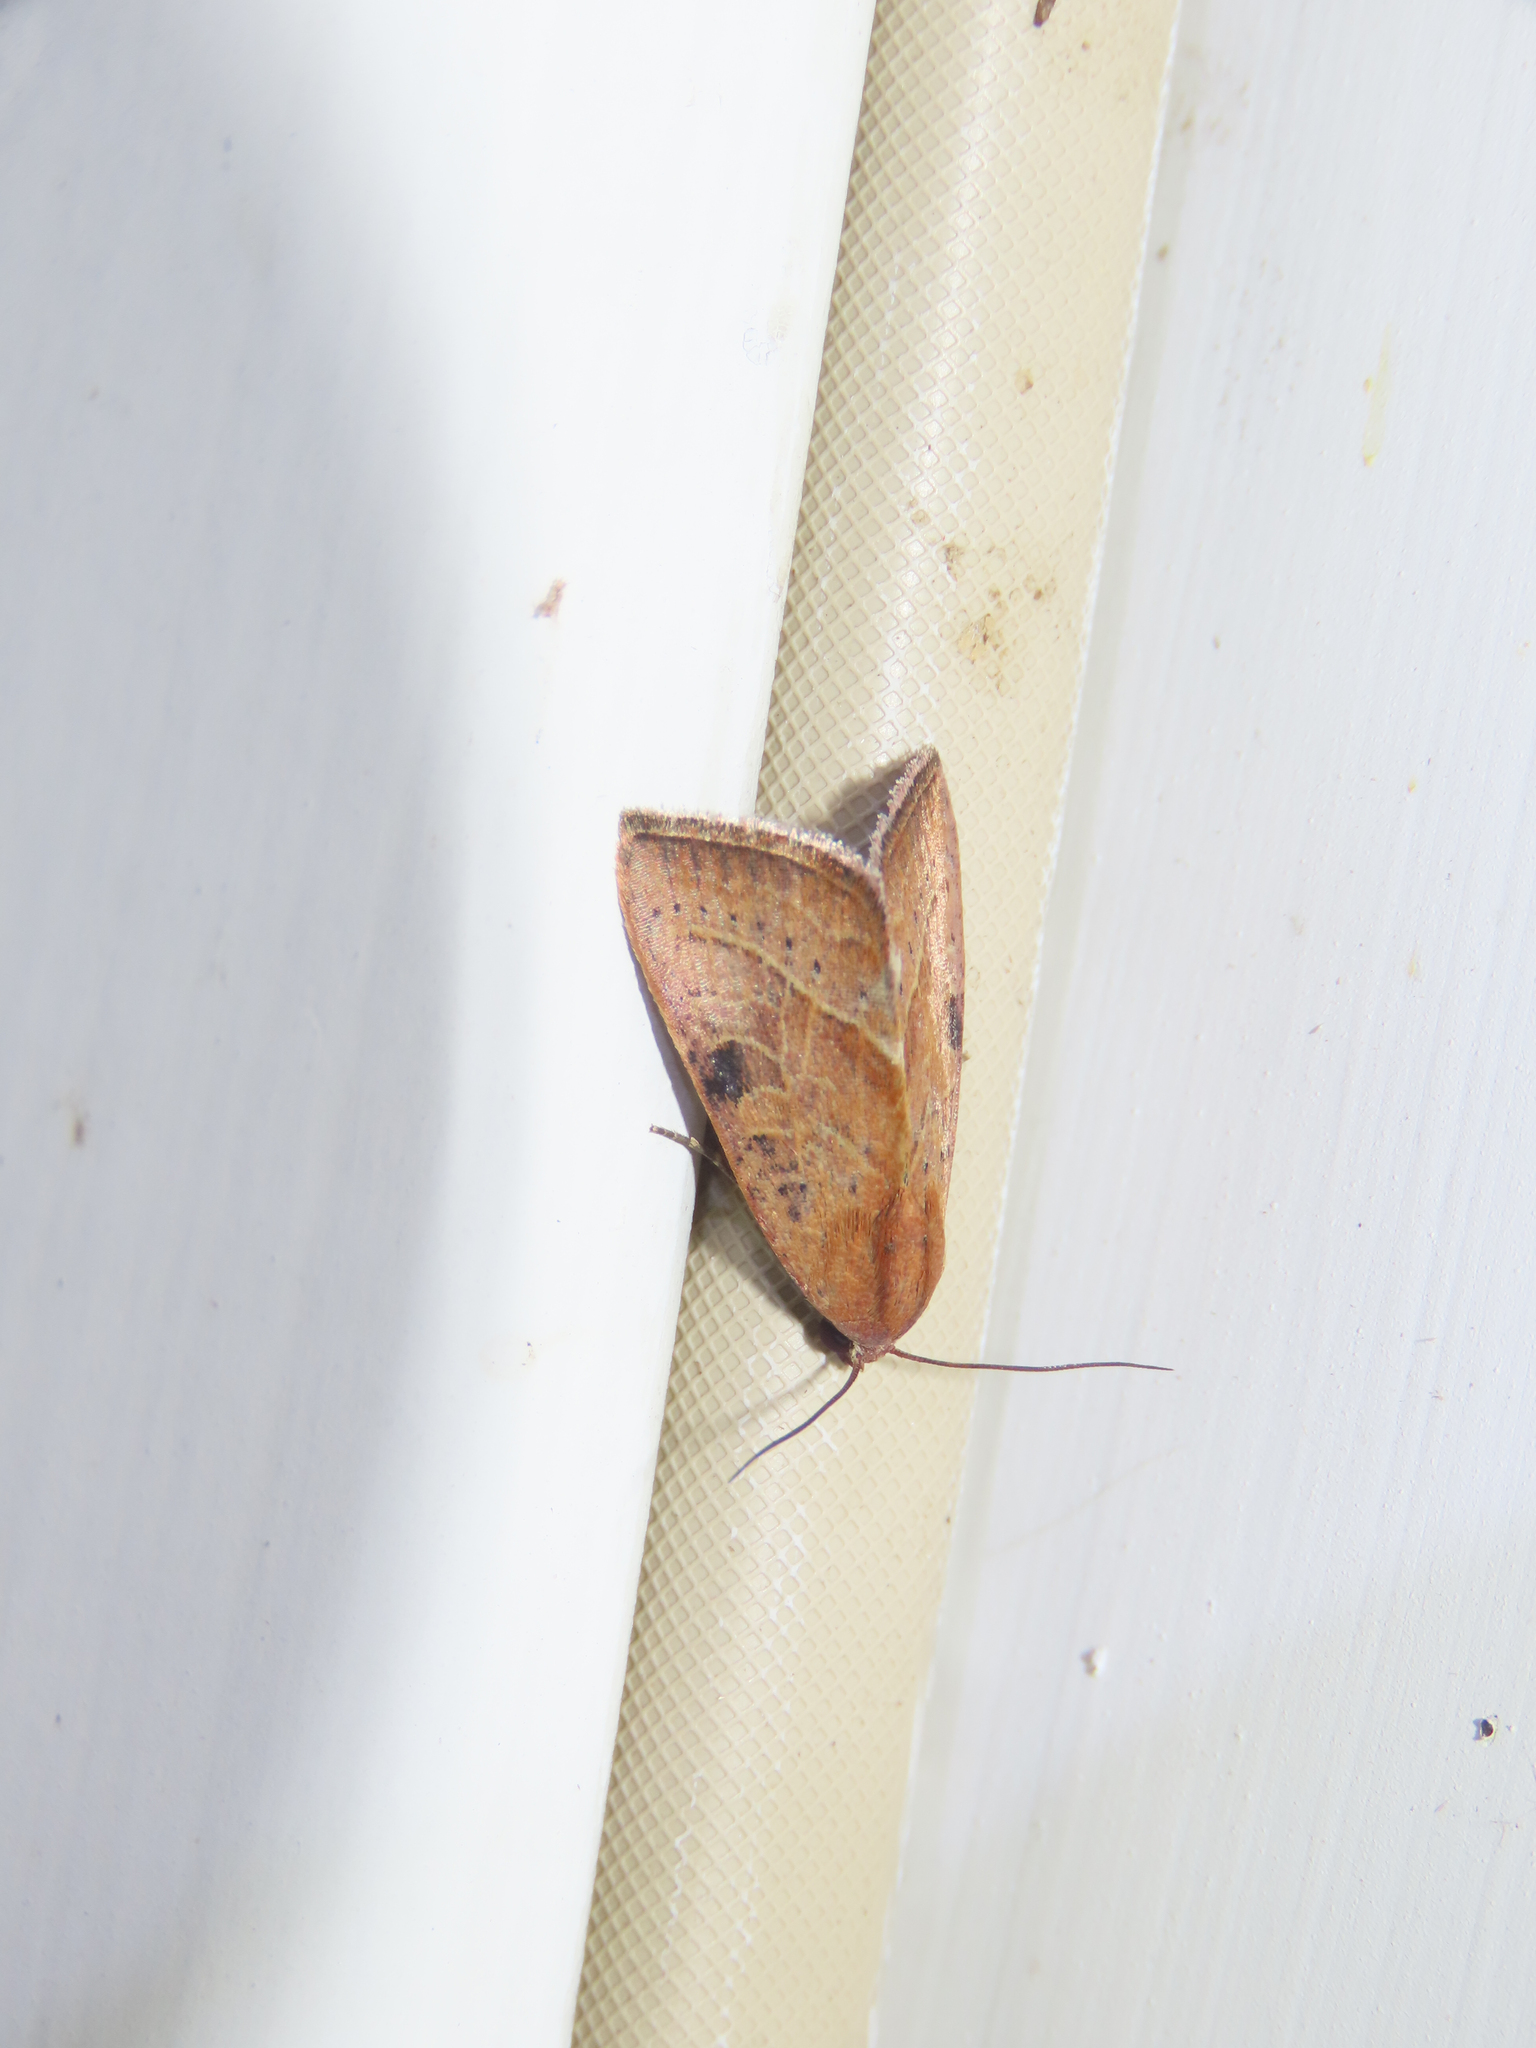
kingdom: Animalia
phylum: Arthropoda
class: Insecta
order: Lepidoptera
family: Noctuidae
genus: Galgula
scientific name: Galgula partita
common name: Wedgeling
